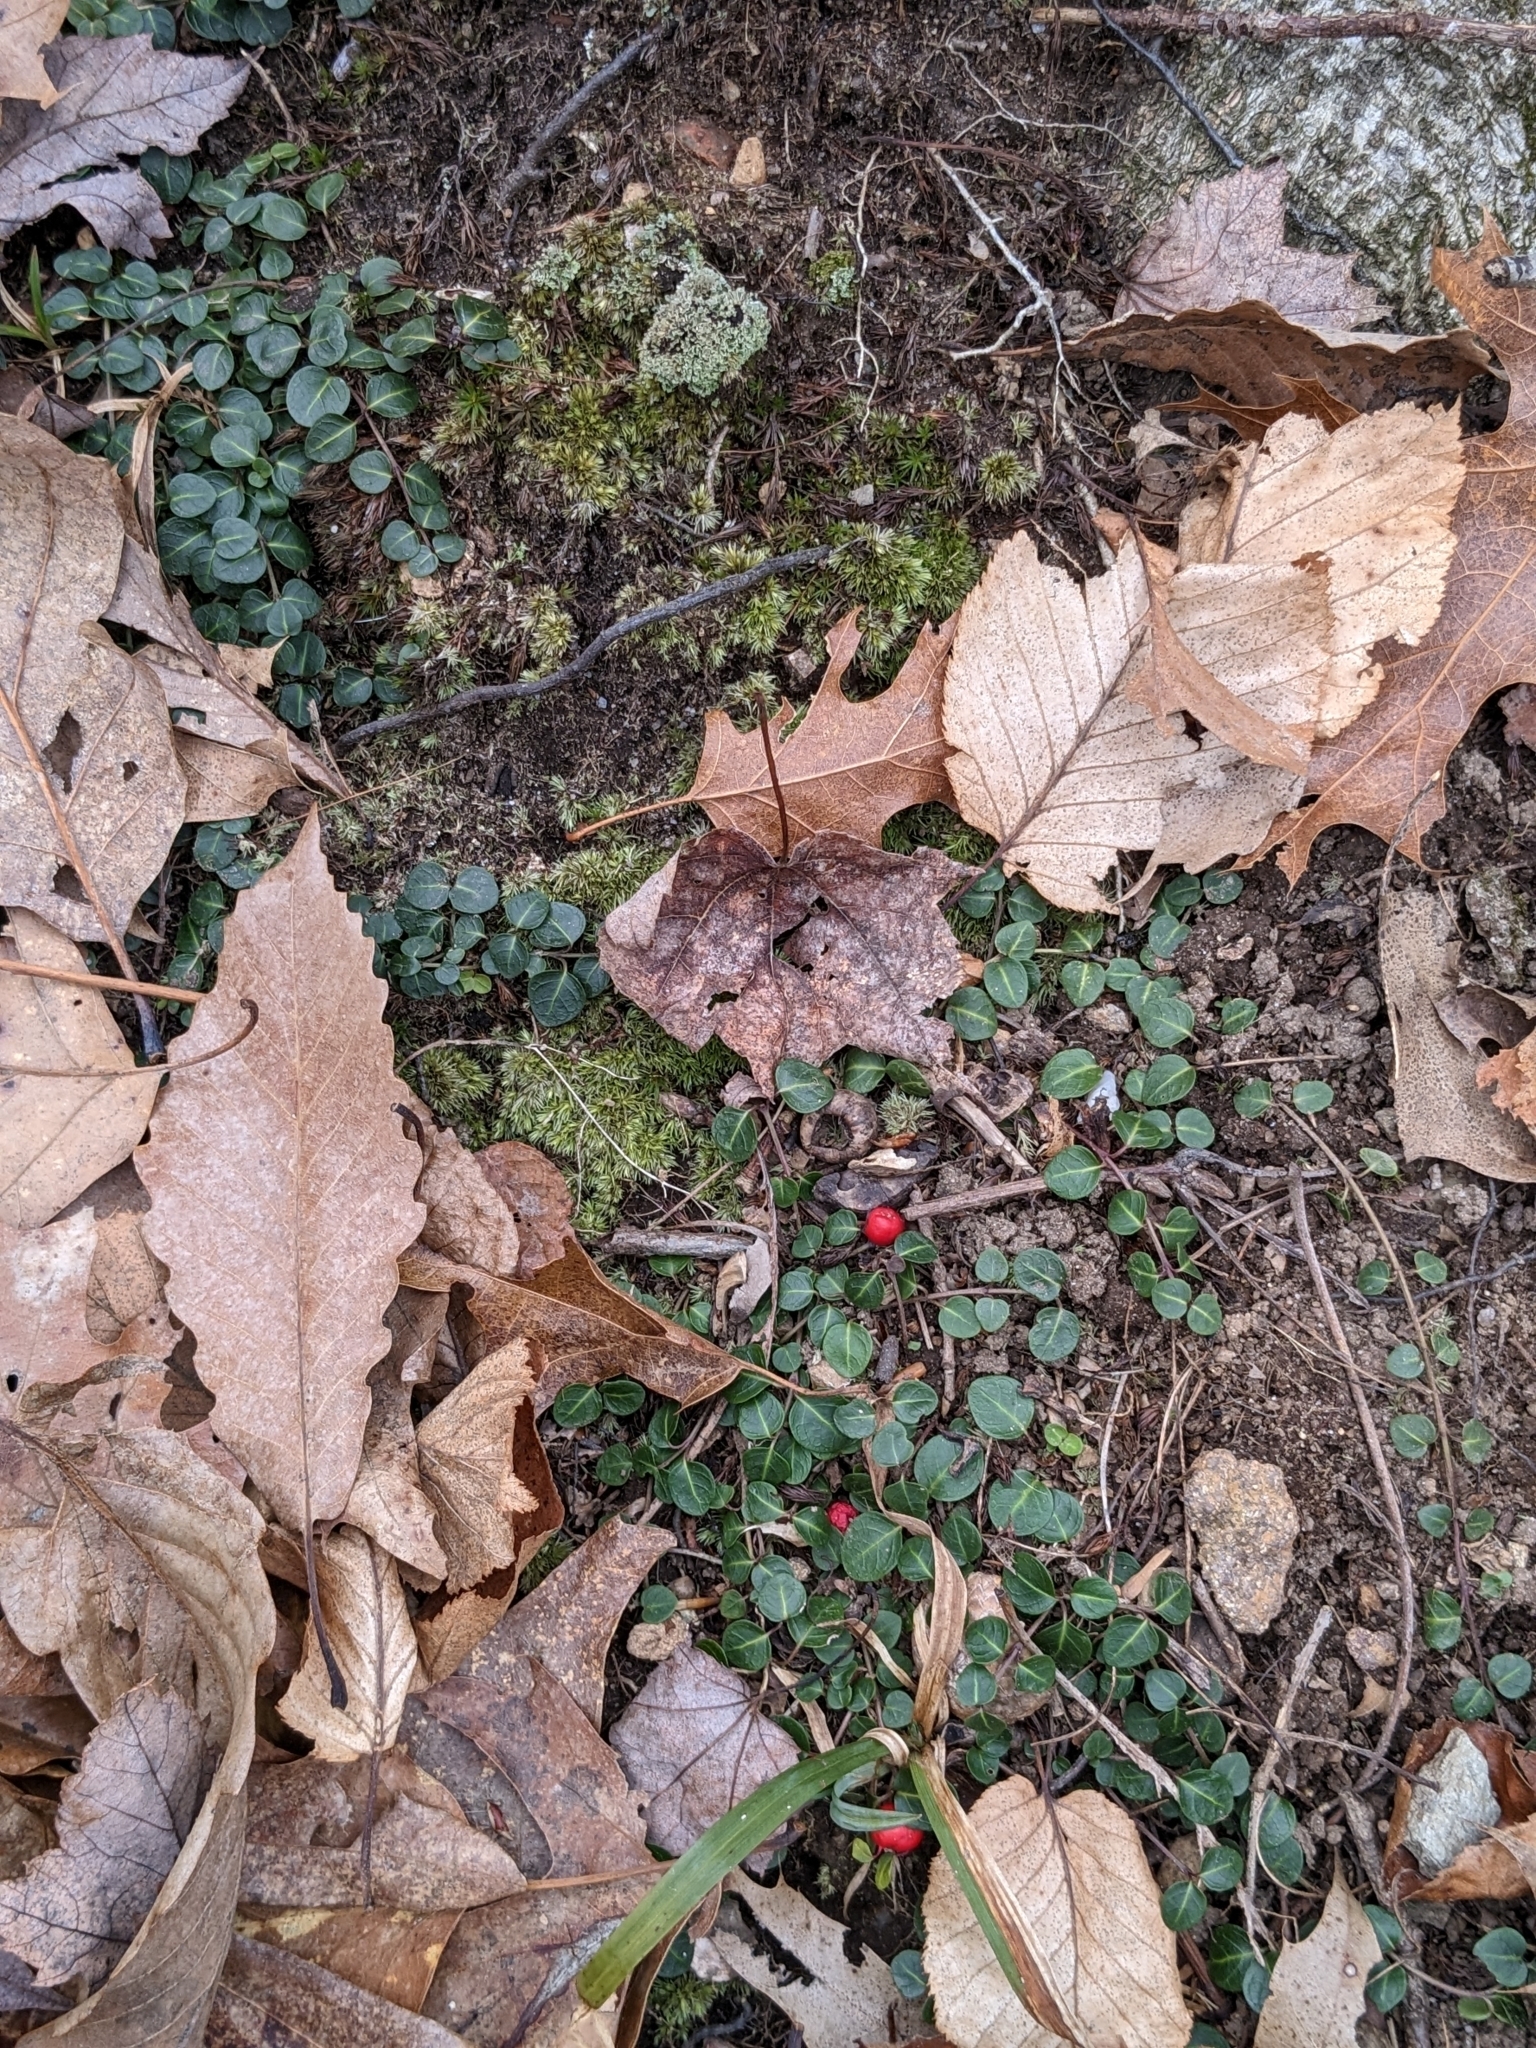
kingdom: Plantae
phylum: Tracheophyta
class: Magnoliopsida
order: Gentianales
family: Rubiaceae
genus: Mitchella
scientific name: Mitchella repens
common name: Partridge-berry
